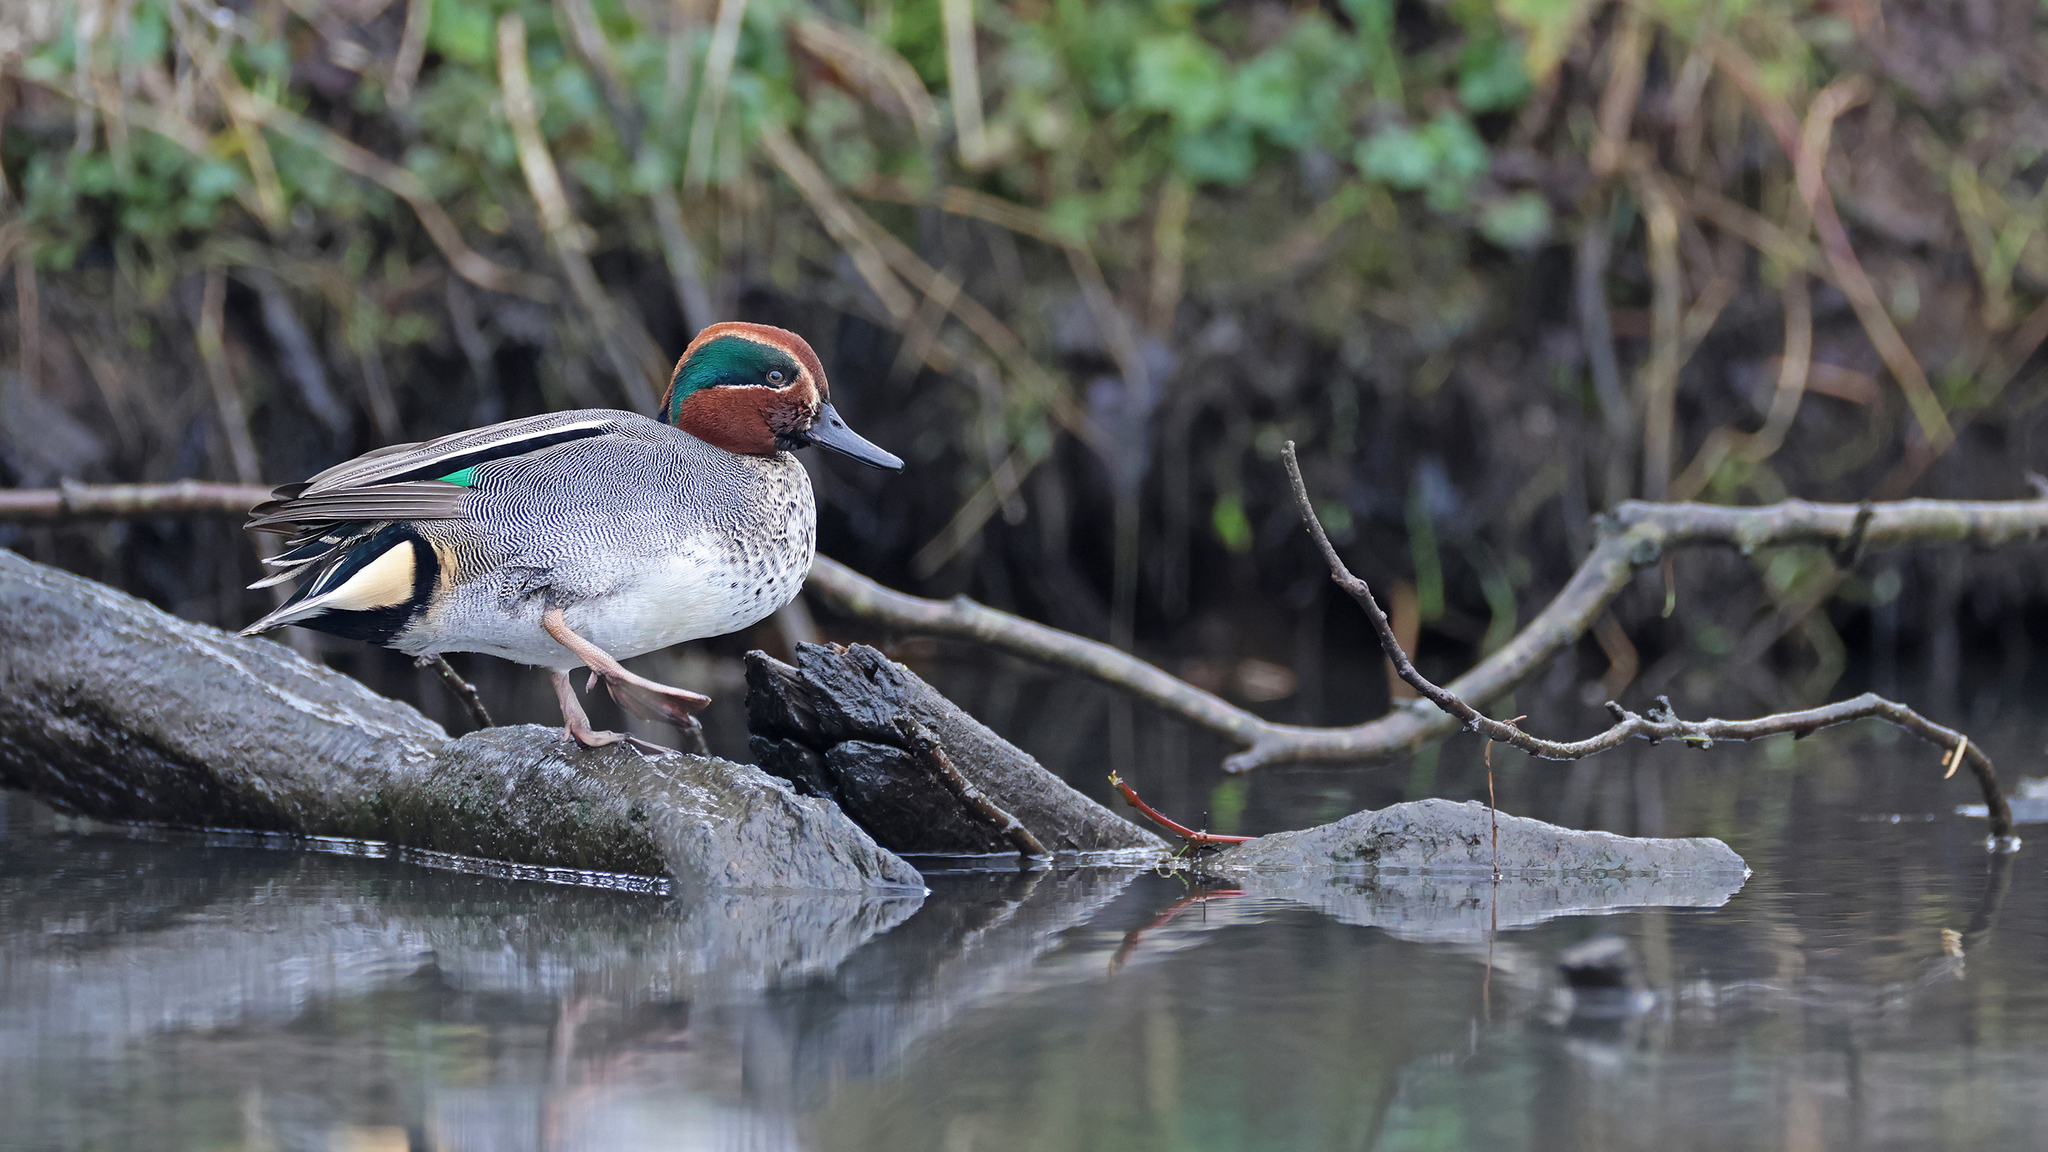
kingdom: Animalia
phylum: Chordata
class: Aves
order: Anseriformes
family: Anatidae
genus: Anas
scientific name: Anas crecca
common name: Eurasian teal
